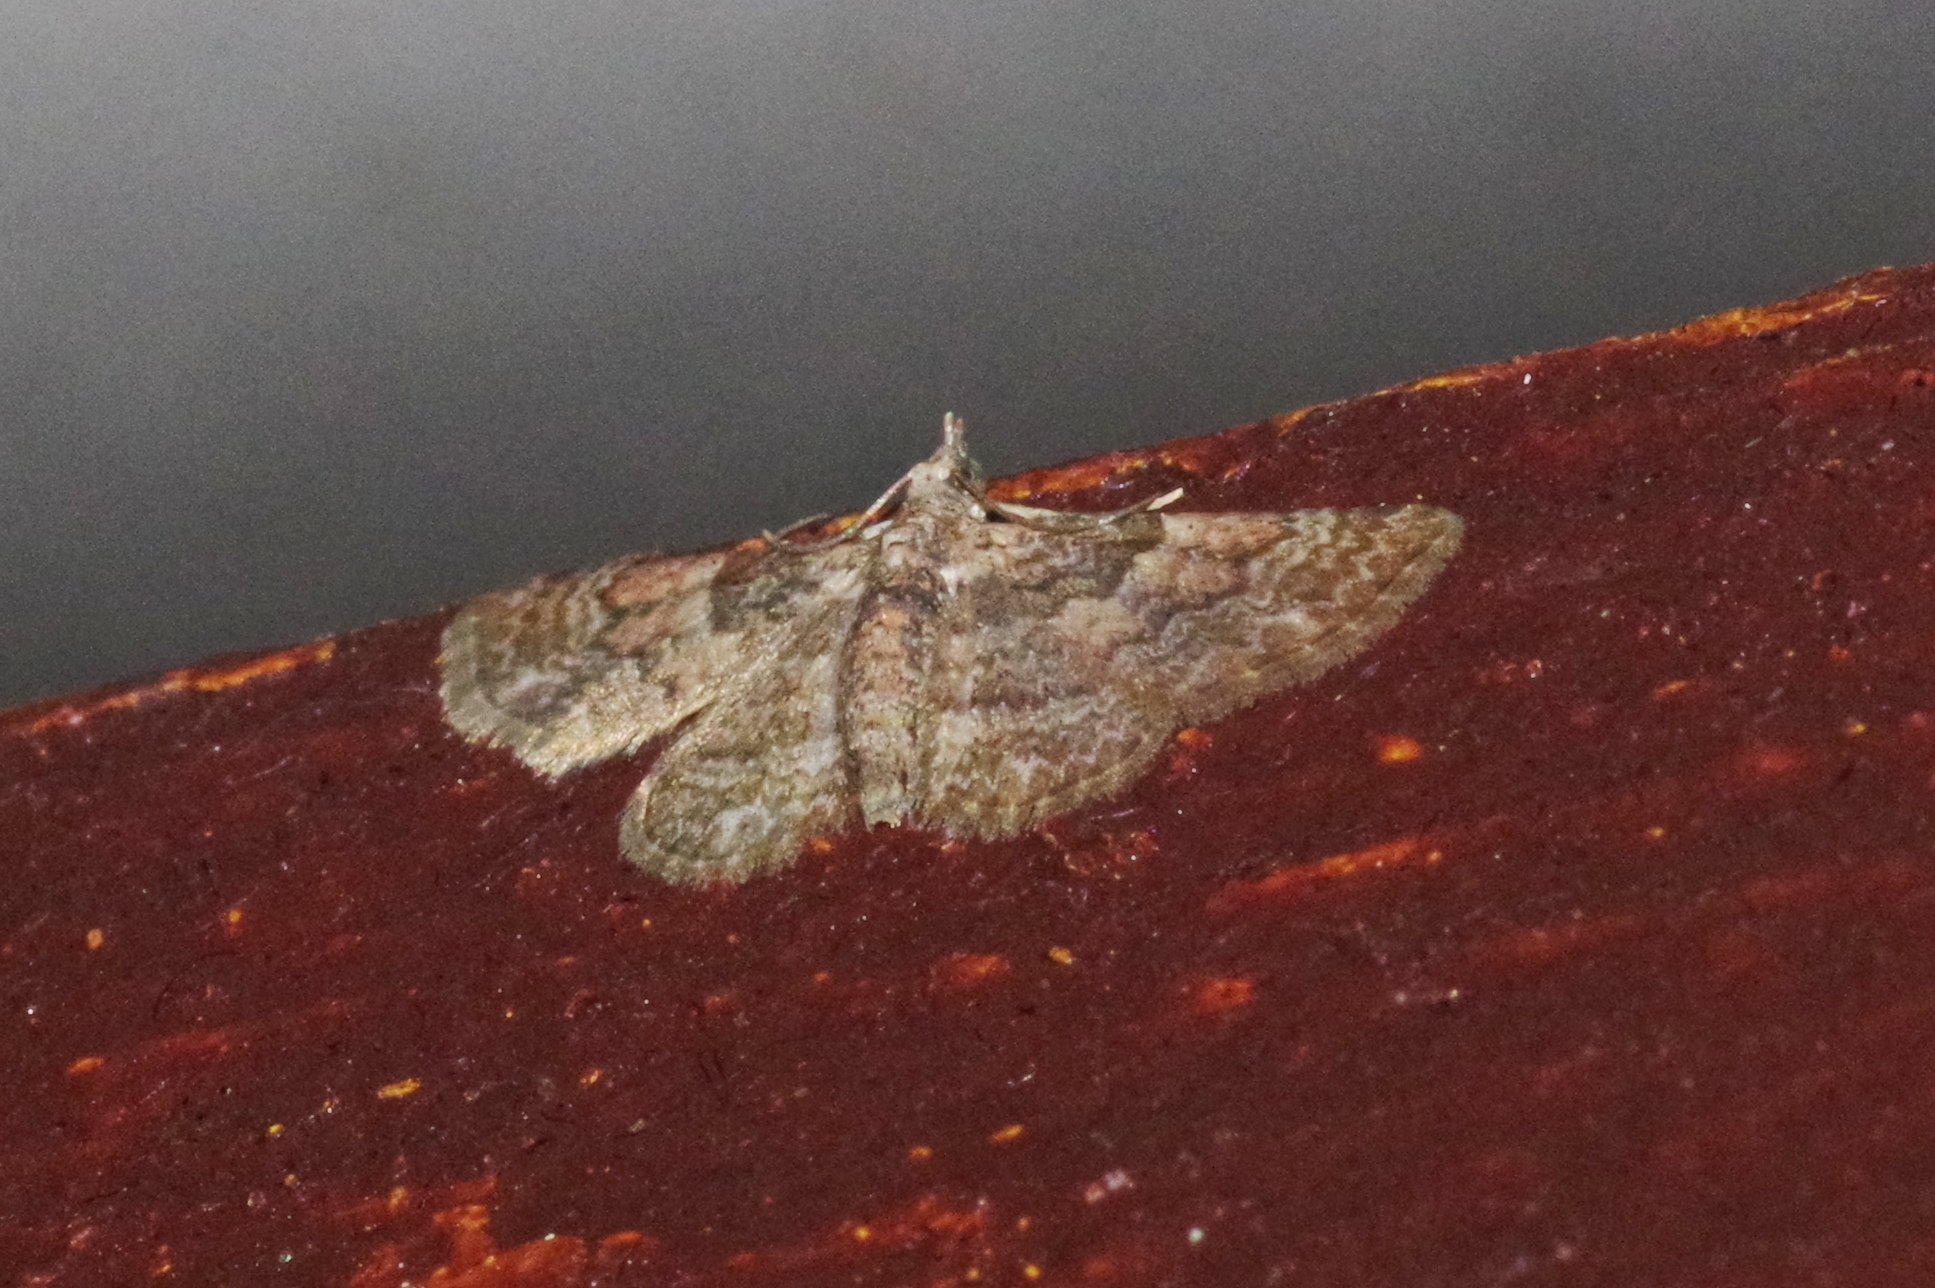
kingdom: Animalia
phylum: Arthropoda
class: Insecta
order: Lepidoptera
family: Geometridae
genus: Gymnoscelis
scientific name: Gymnoscelis esakii
